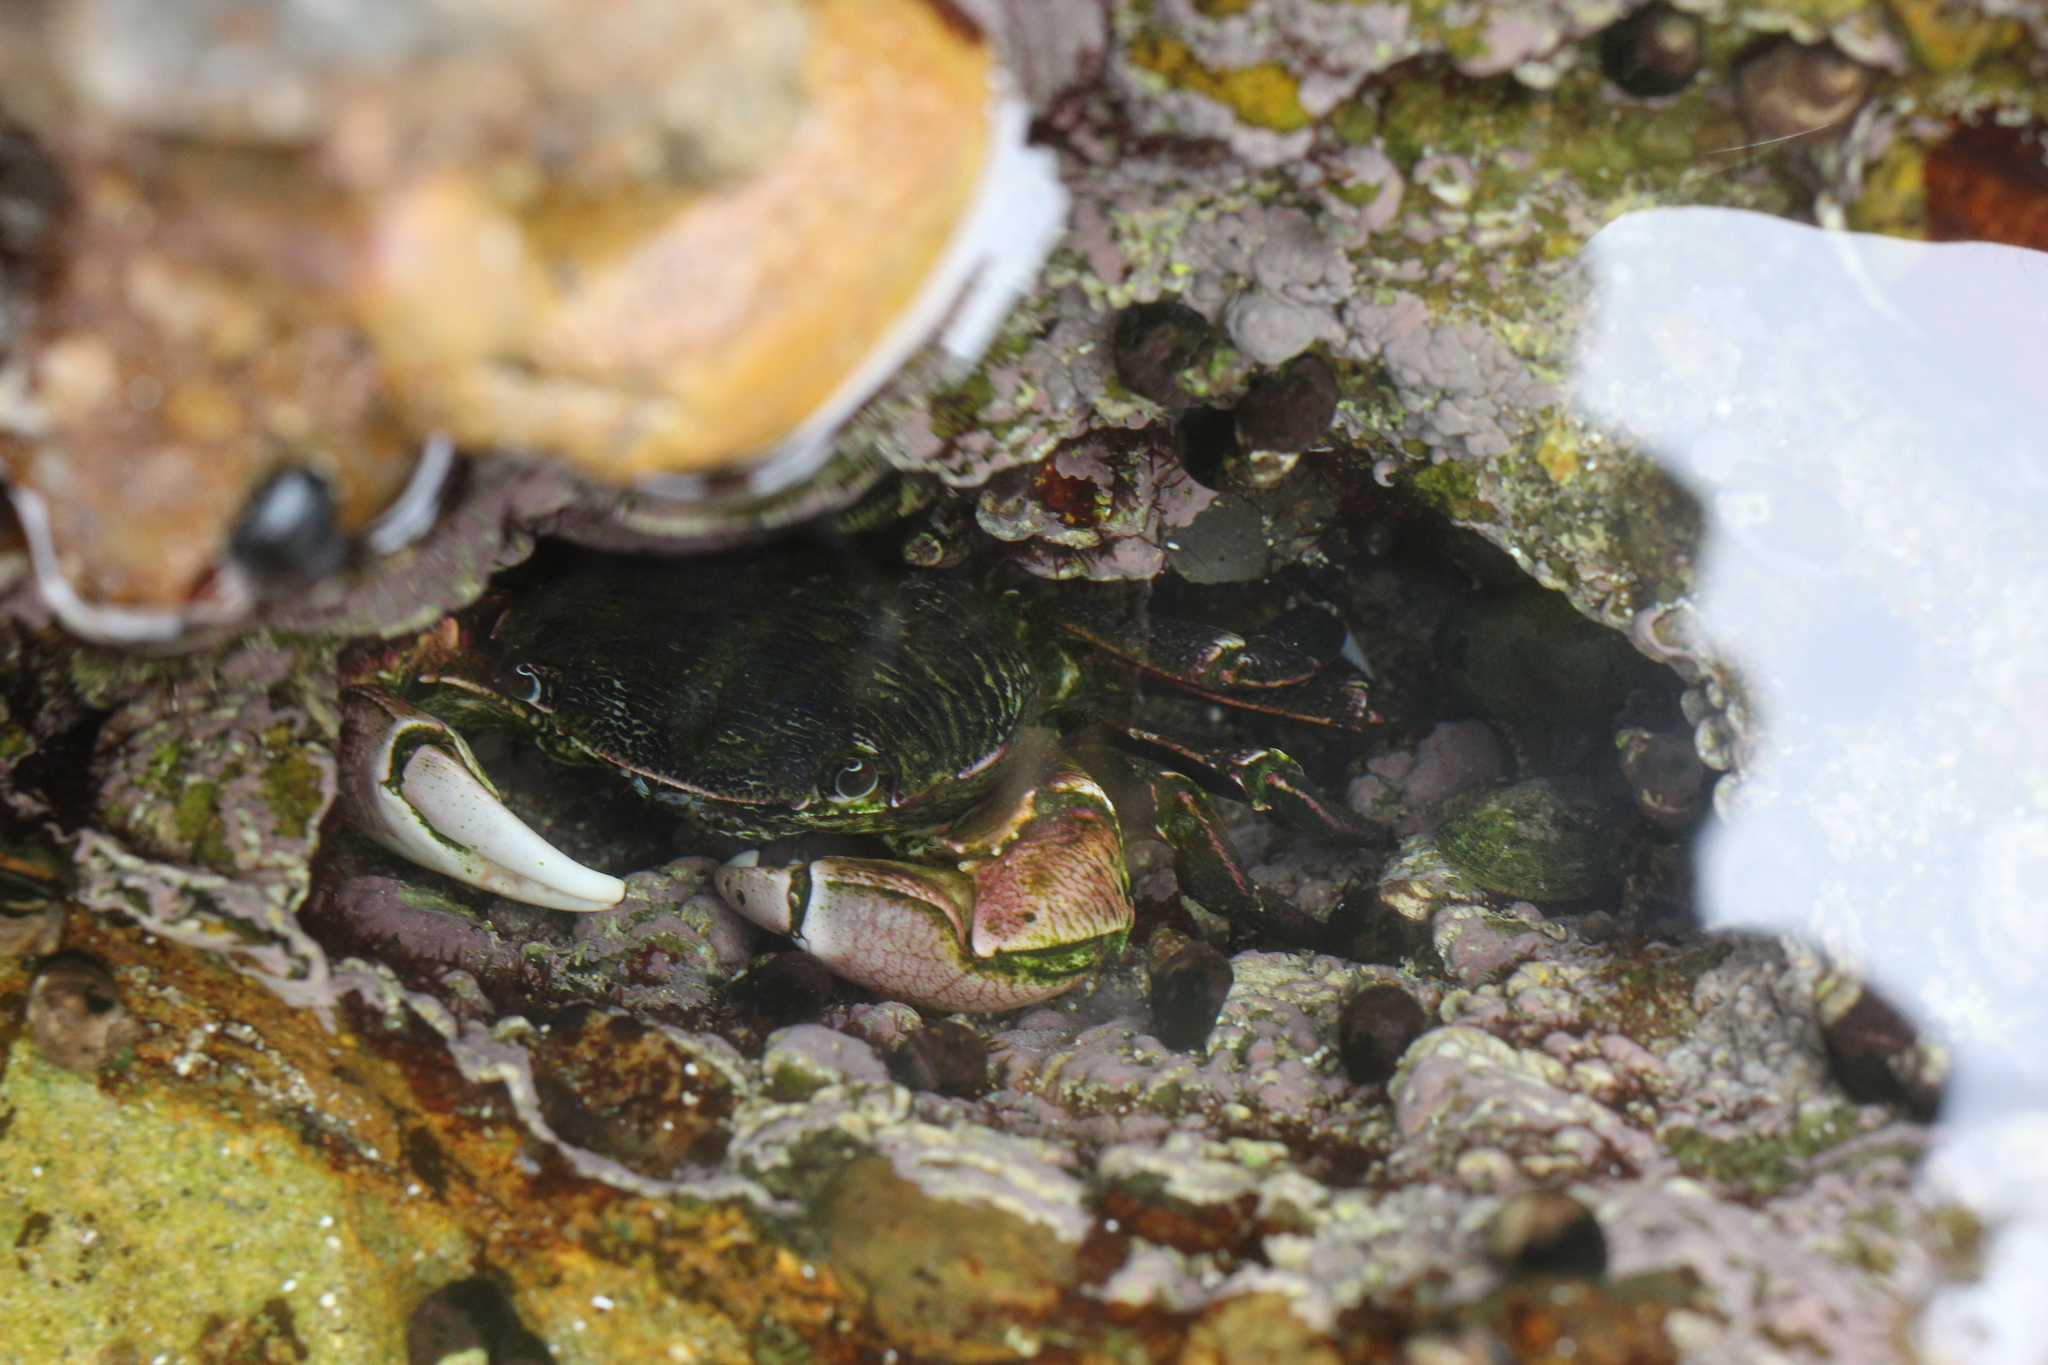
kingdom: Animalia
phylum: Arthropoda
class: Malacostraca
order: Decapoda
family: Grapsidae
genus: Pachygrapsus
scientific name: Pachygrapsus crassipes
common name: Striped shore crab
